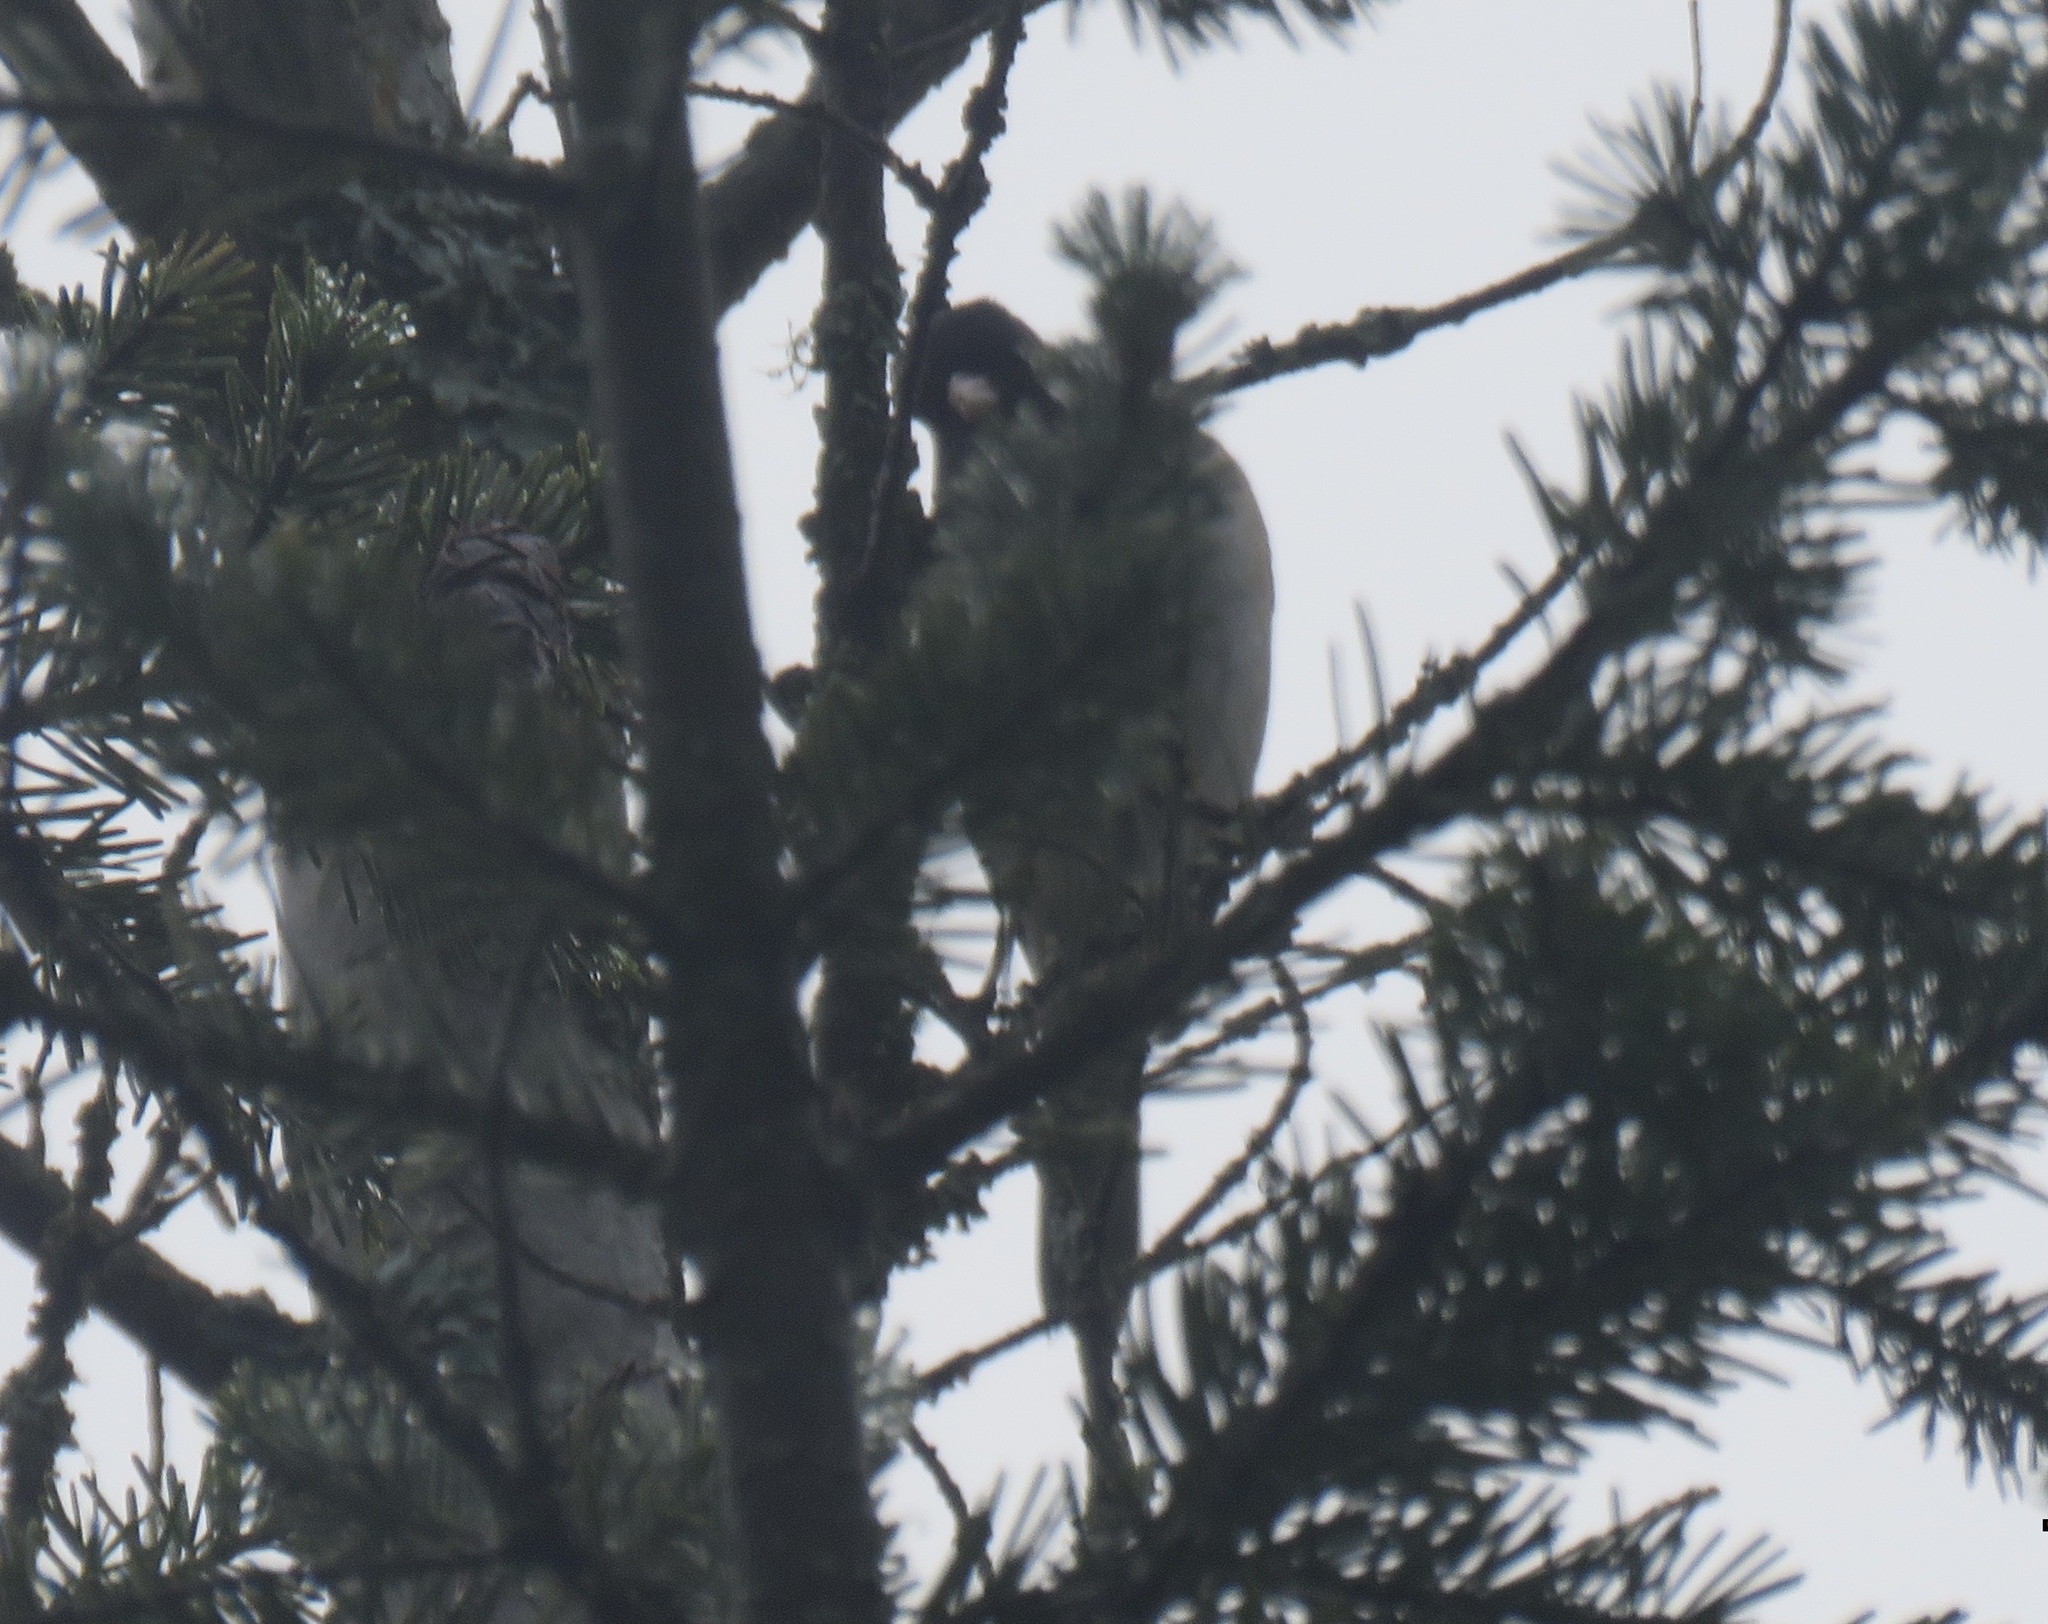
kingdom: Animalia
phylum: Chordata
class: Aves
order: Passeriformes
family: Passerellidae
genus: Junco
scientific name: Junco hyemalis
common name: Dark-eyed junco
